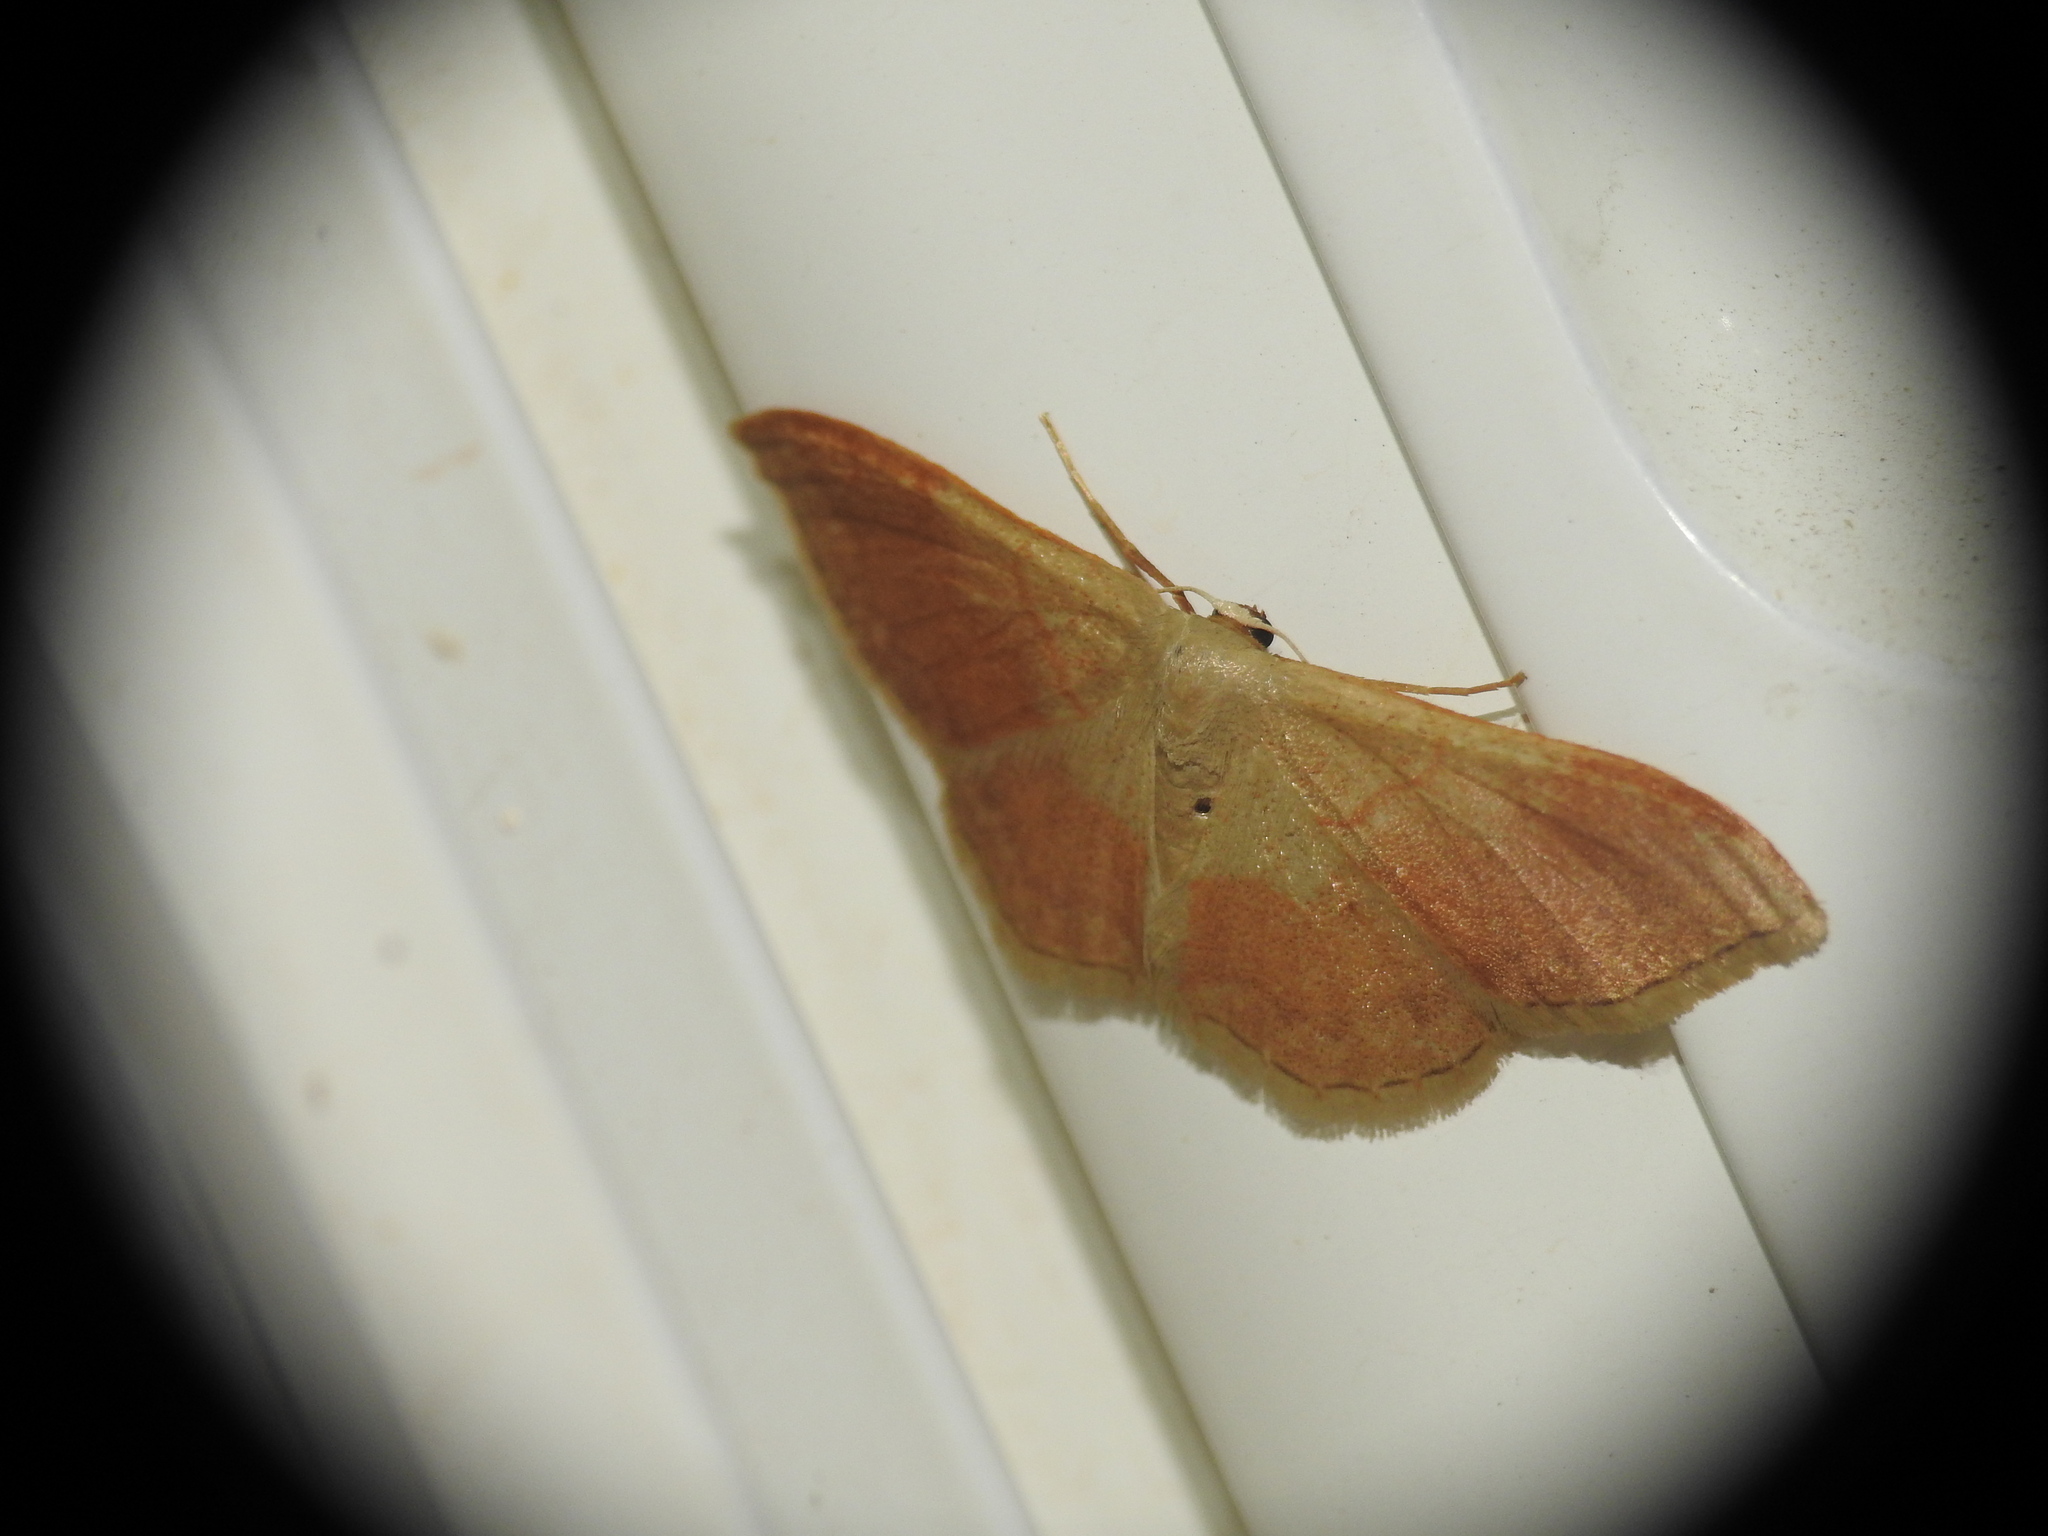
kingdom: Animalia
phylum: Arthropoda
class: Insecta
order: Lepidoptera
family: Geometridae
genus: Idaea
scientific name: Idaea bilinearia
